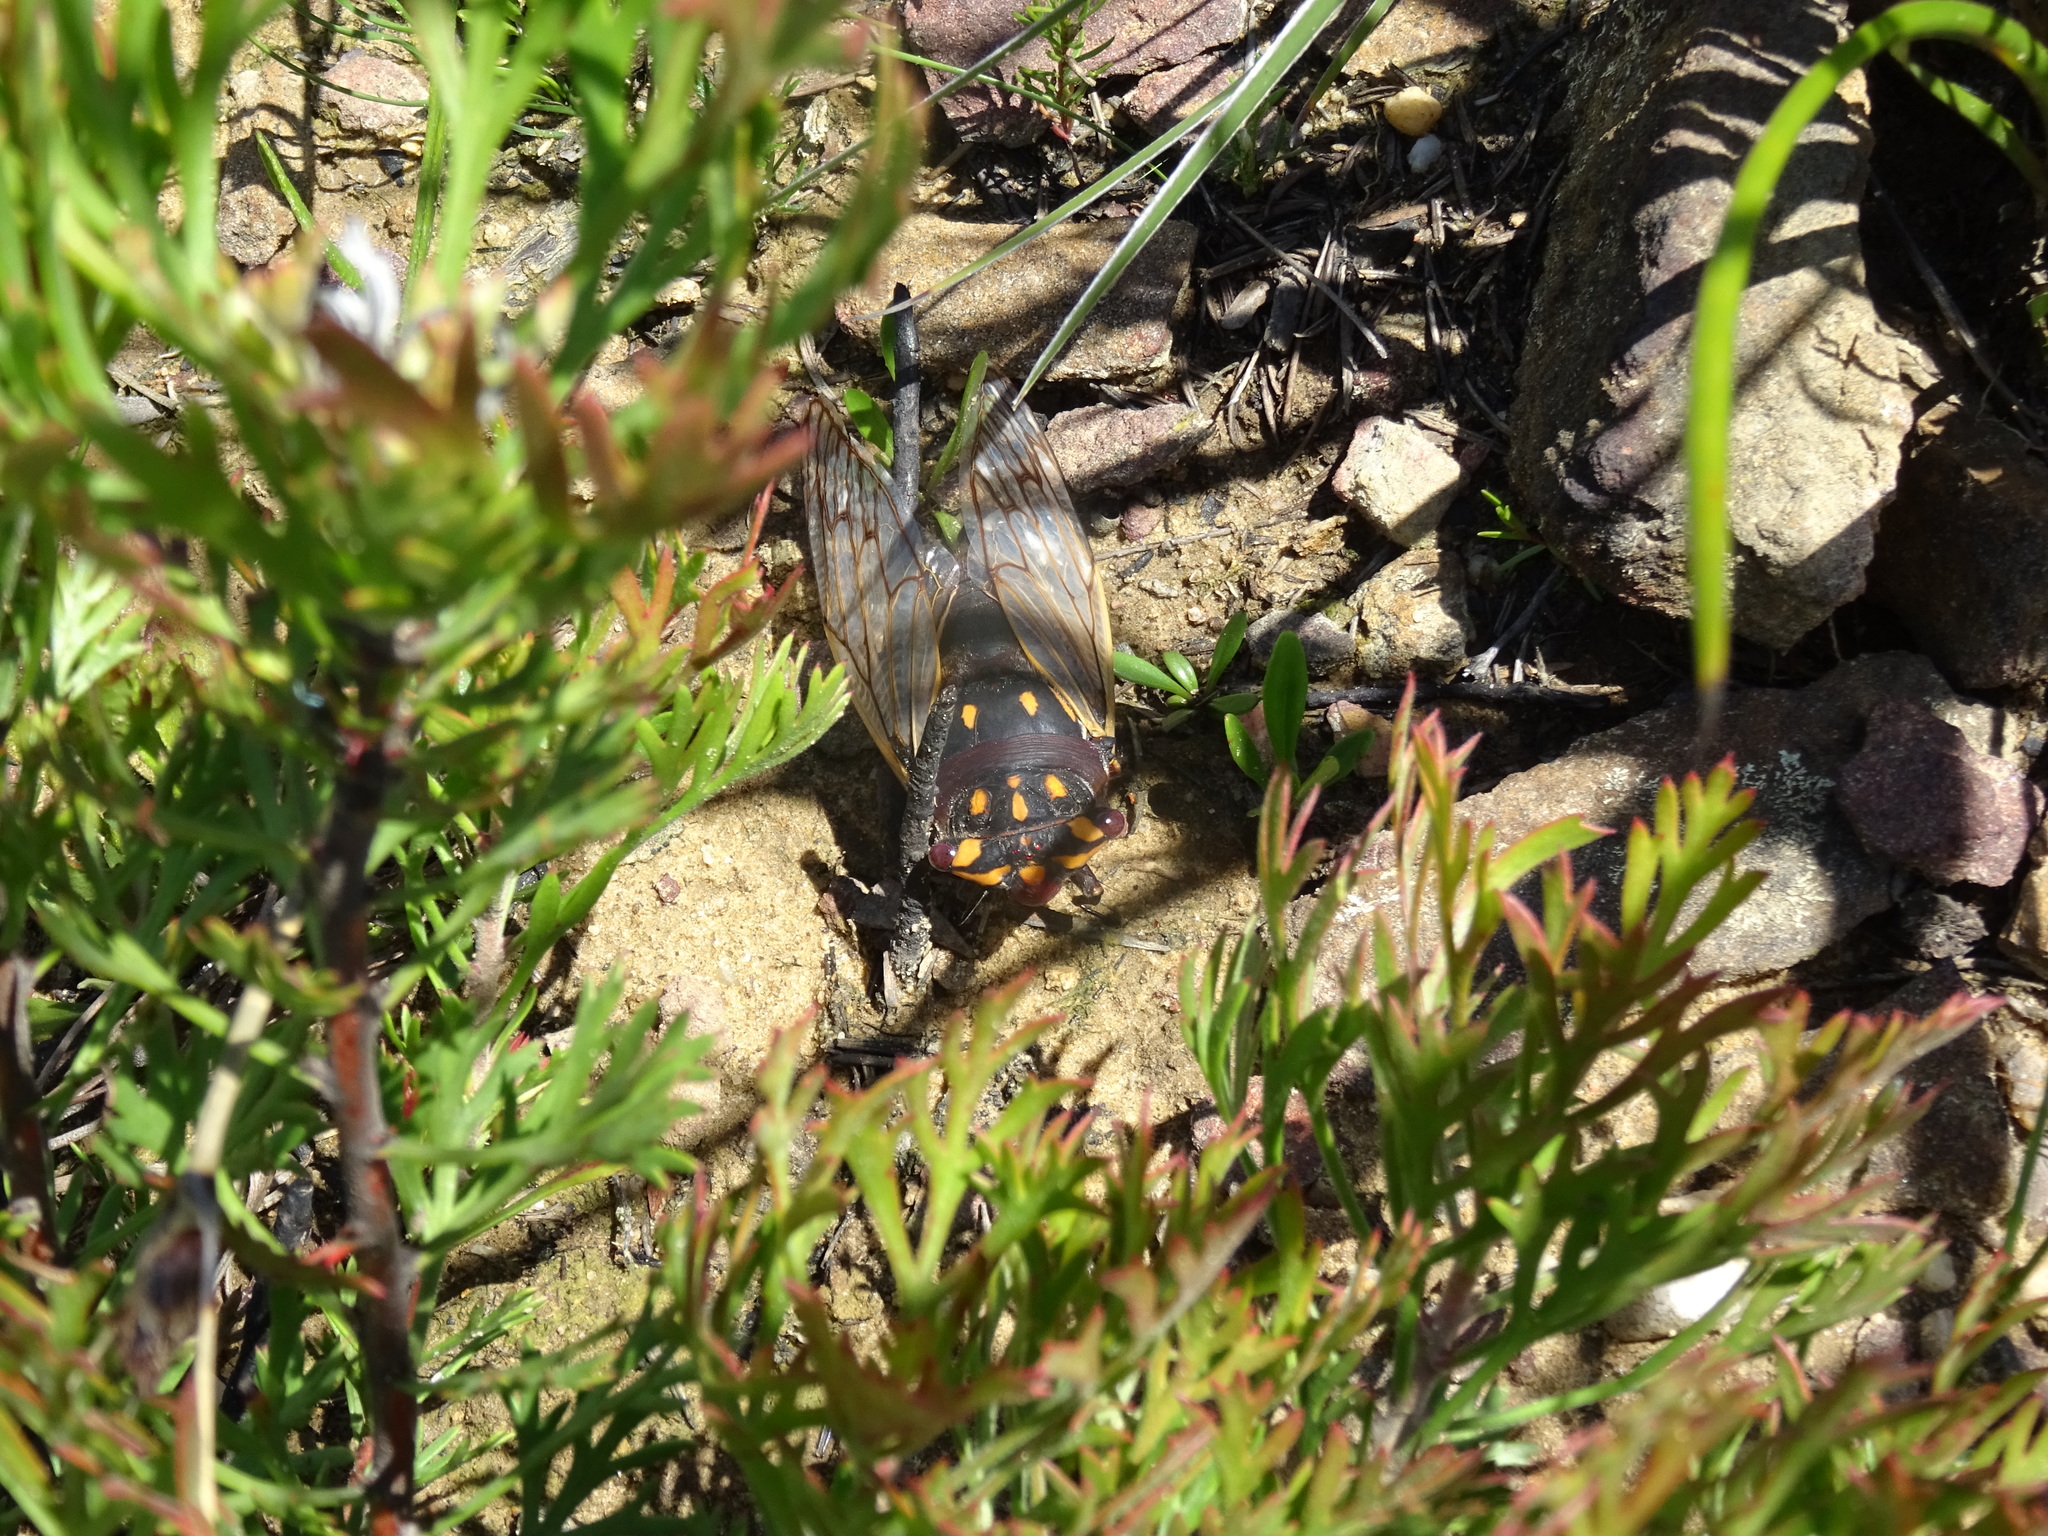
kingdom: Animalia
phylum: Arthropoda
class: Insecta
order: Hemiptera
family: Cicadidae
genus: Macrotristria
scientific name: Macrotristria angularis
